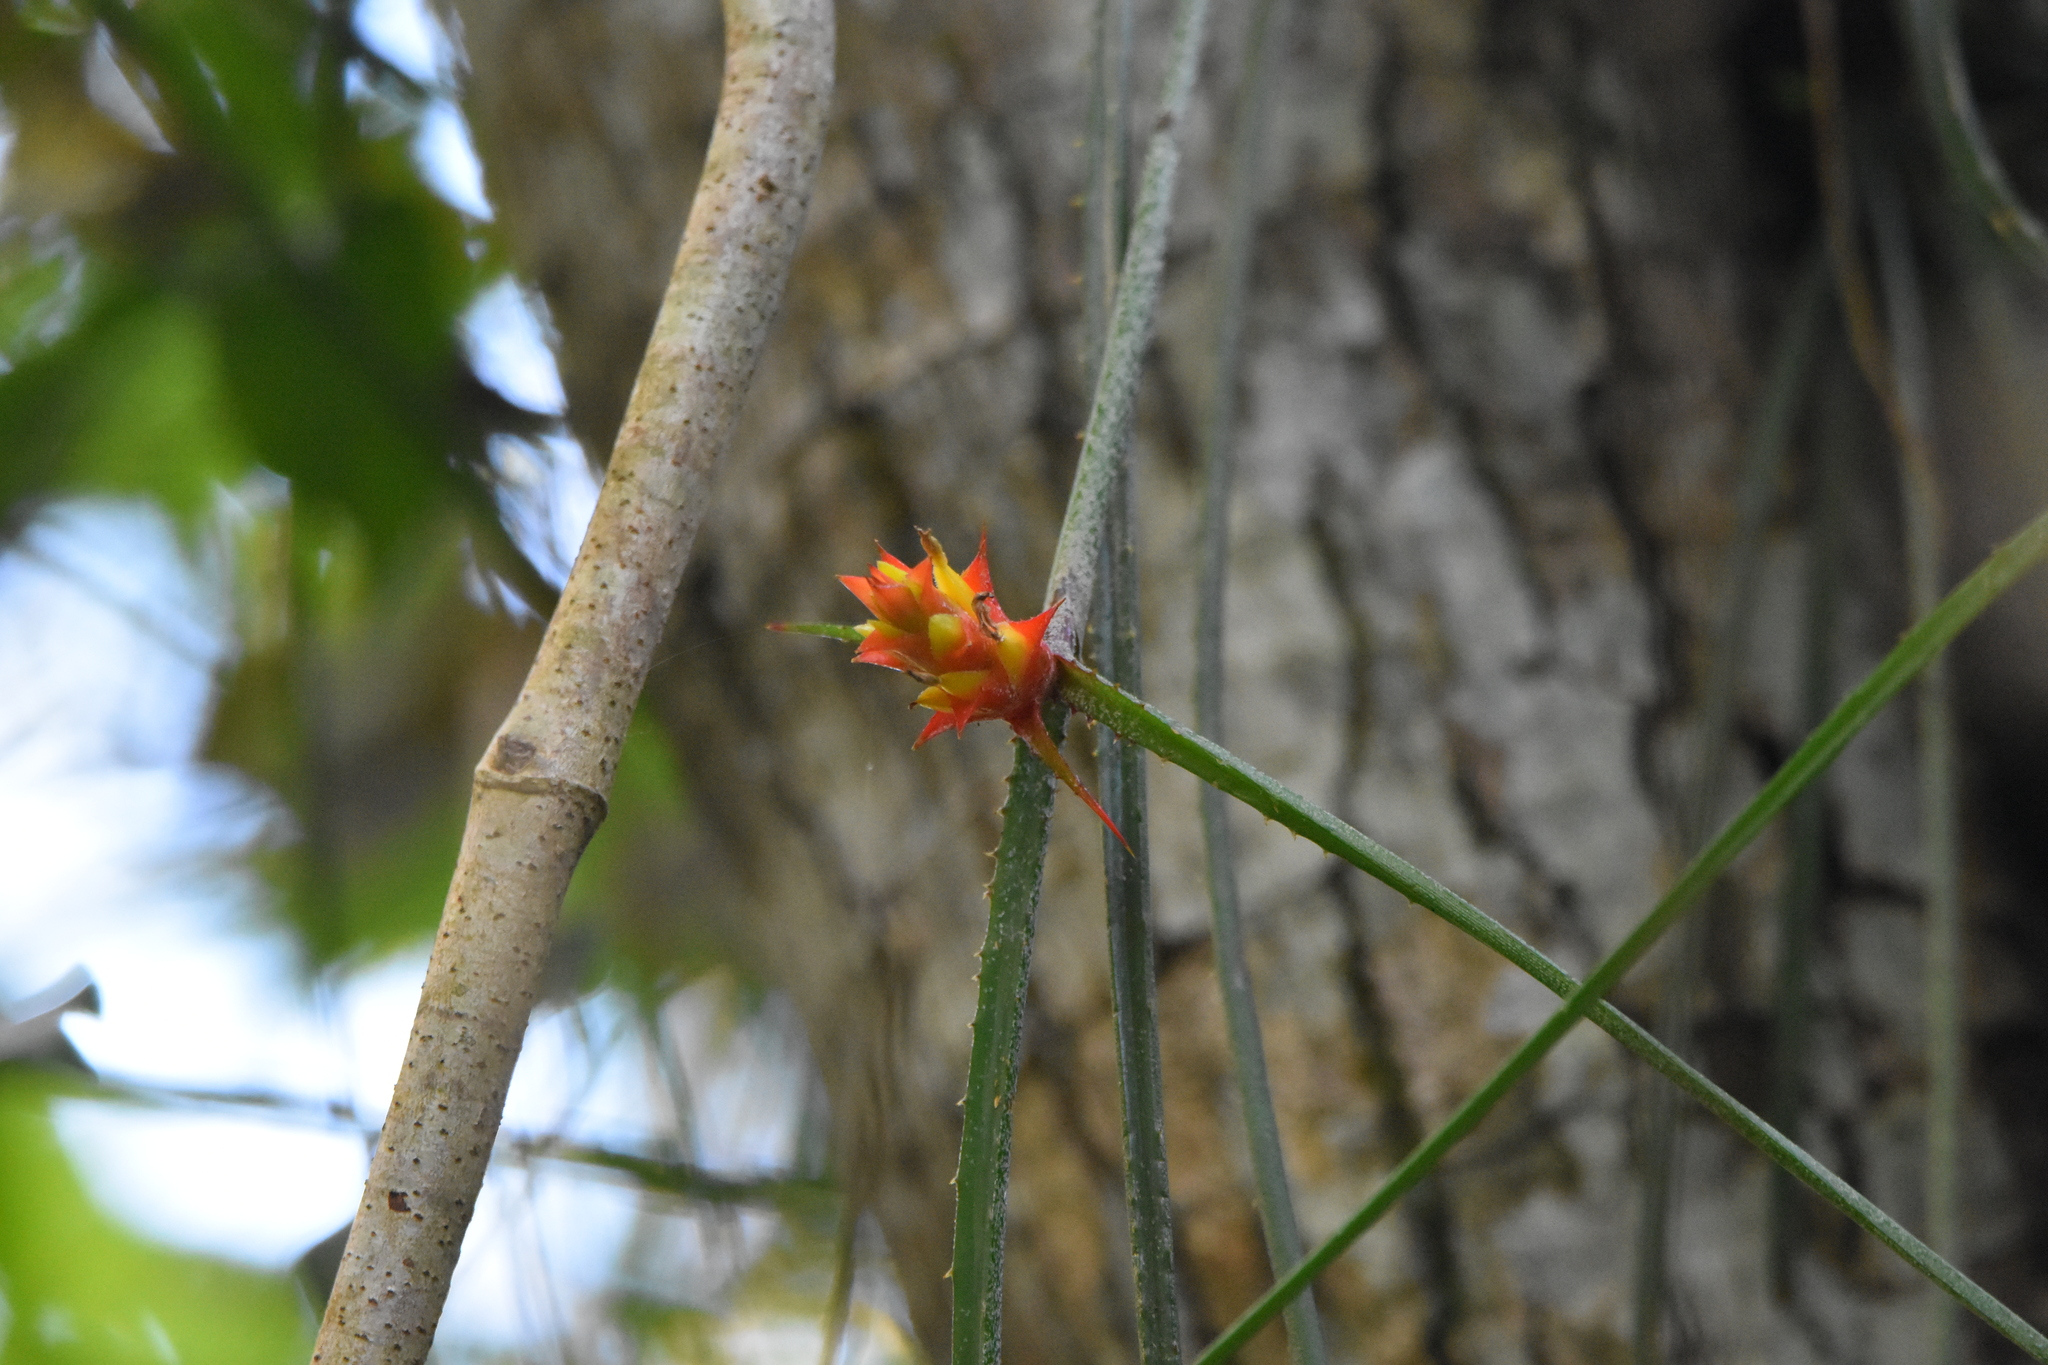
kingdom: Plantae
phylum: Tracheophyta
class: Liliopsida
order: Poales
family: Bromeliaceae
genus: Acanthostachys
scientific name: Acanthostachys strobilacea
